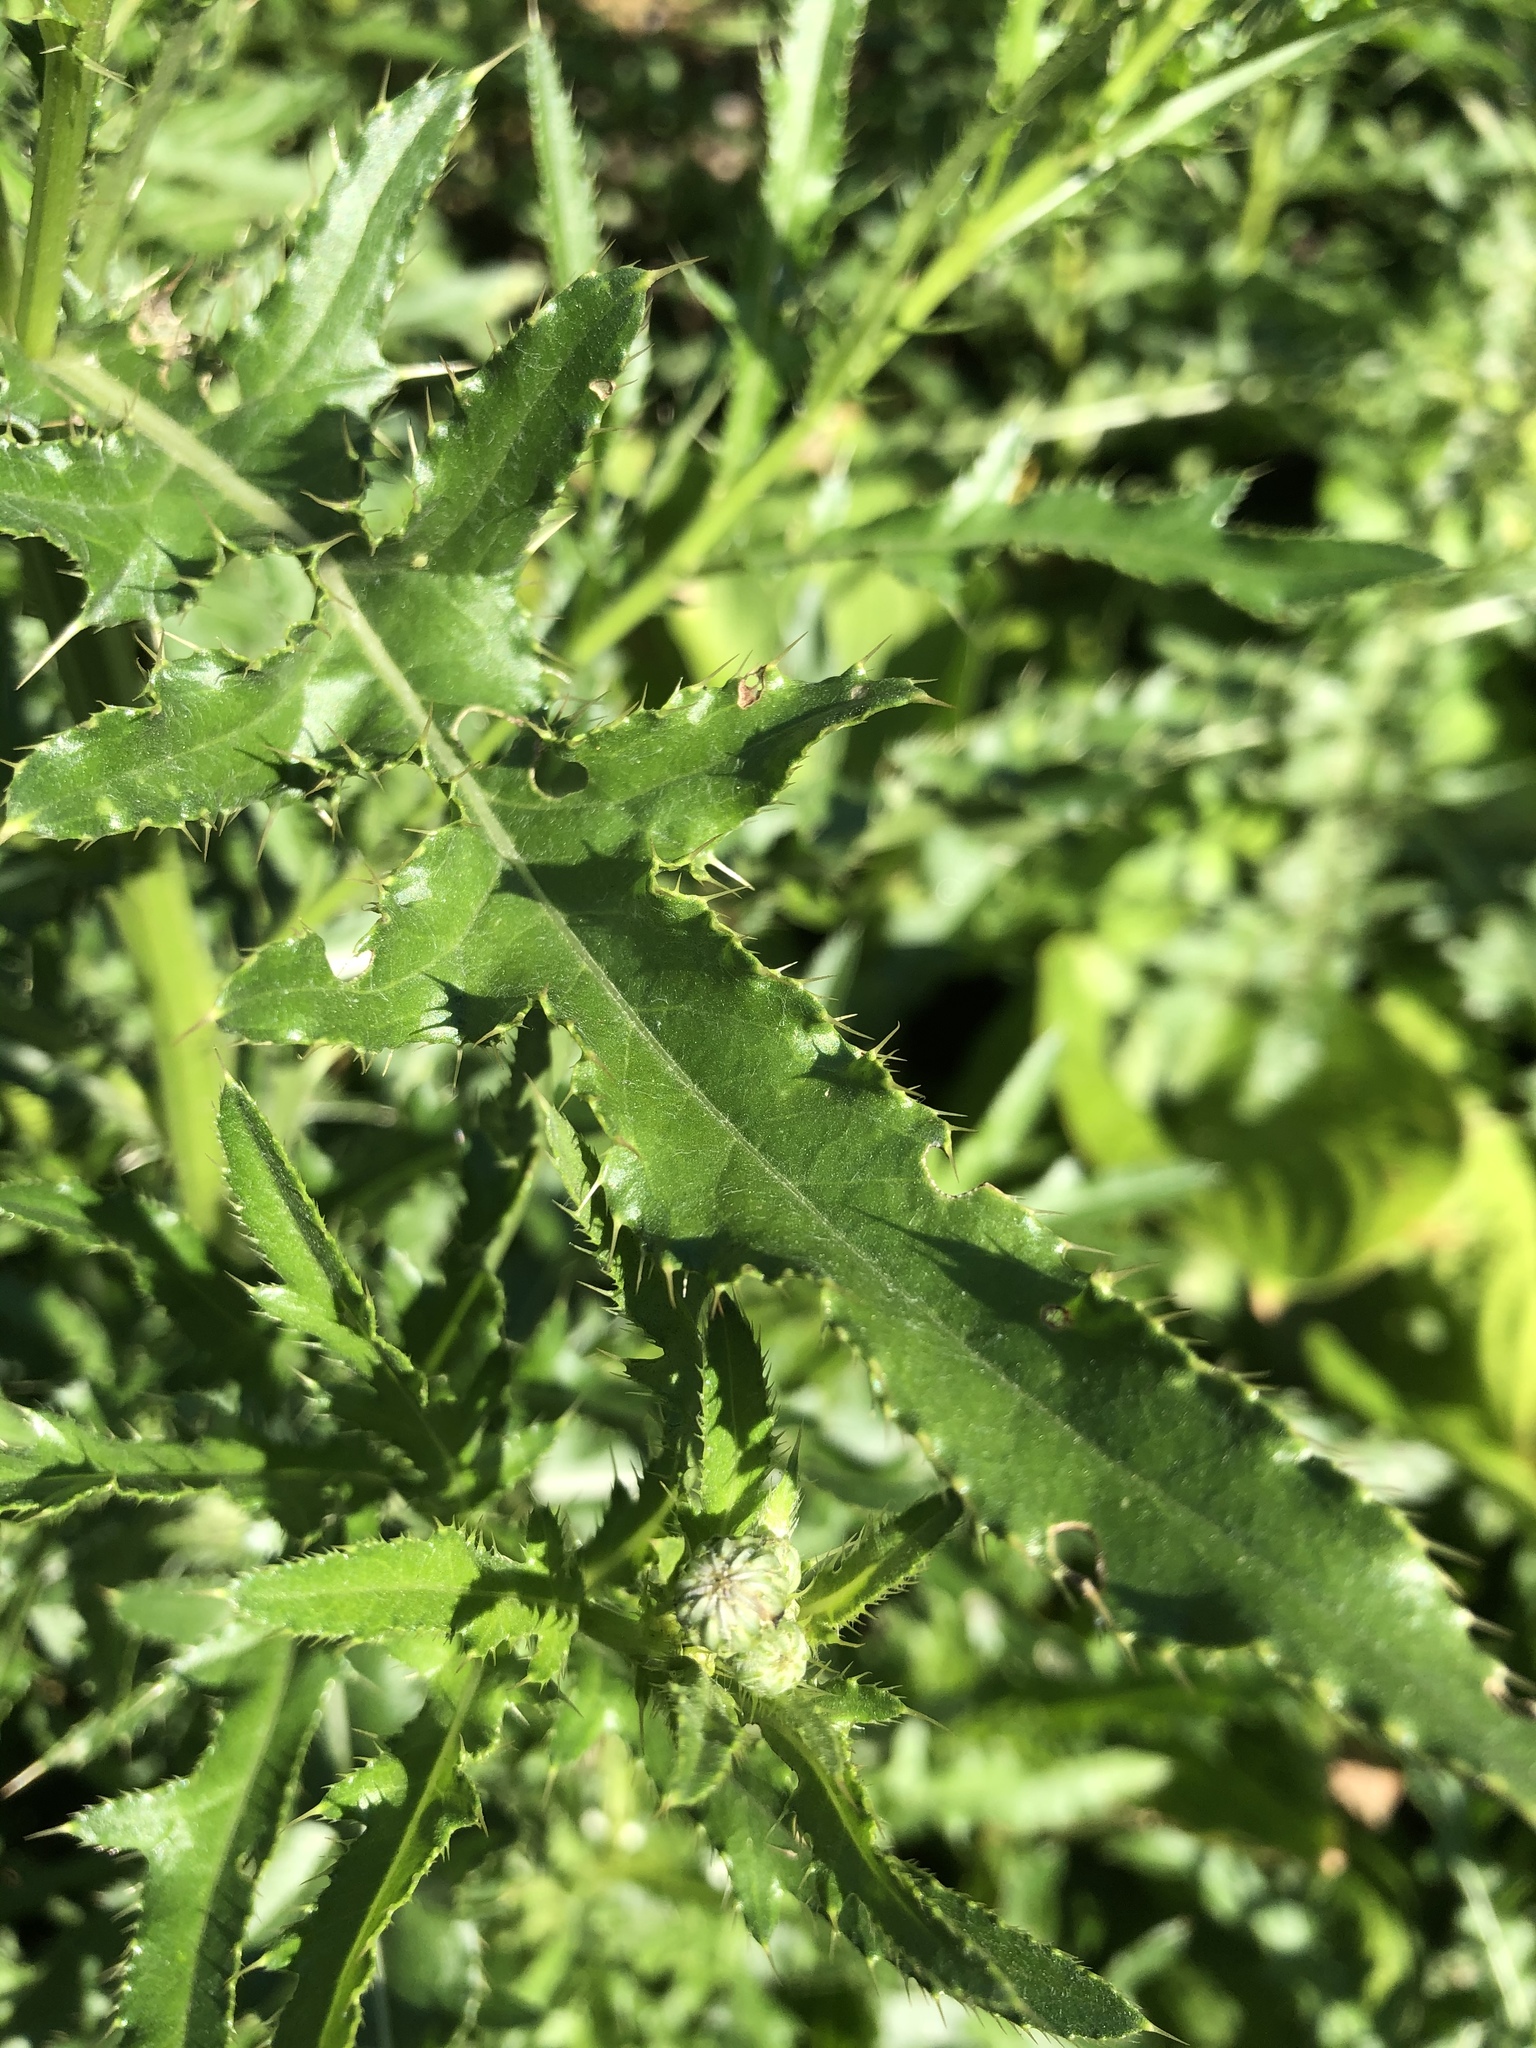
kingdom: Plantae
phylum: Tracheophyta
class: Magnoliopsida
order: Lamiales
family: Scrophulariaceae
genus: Verbascum
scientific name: Verbascum blattaria
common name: Moth mullein
